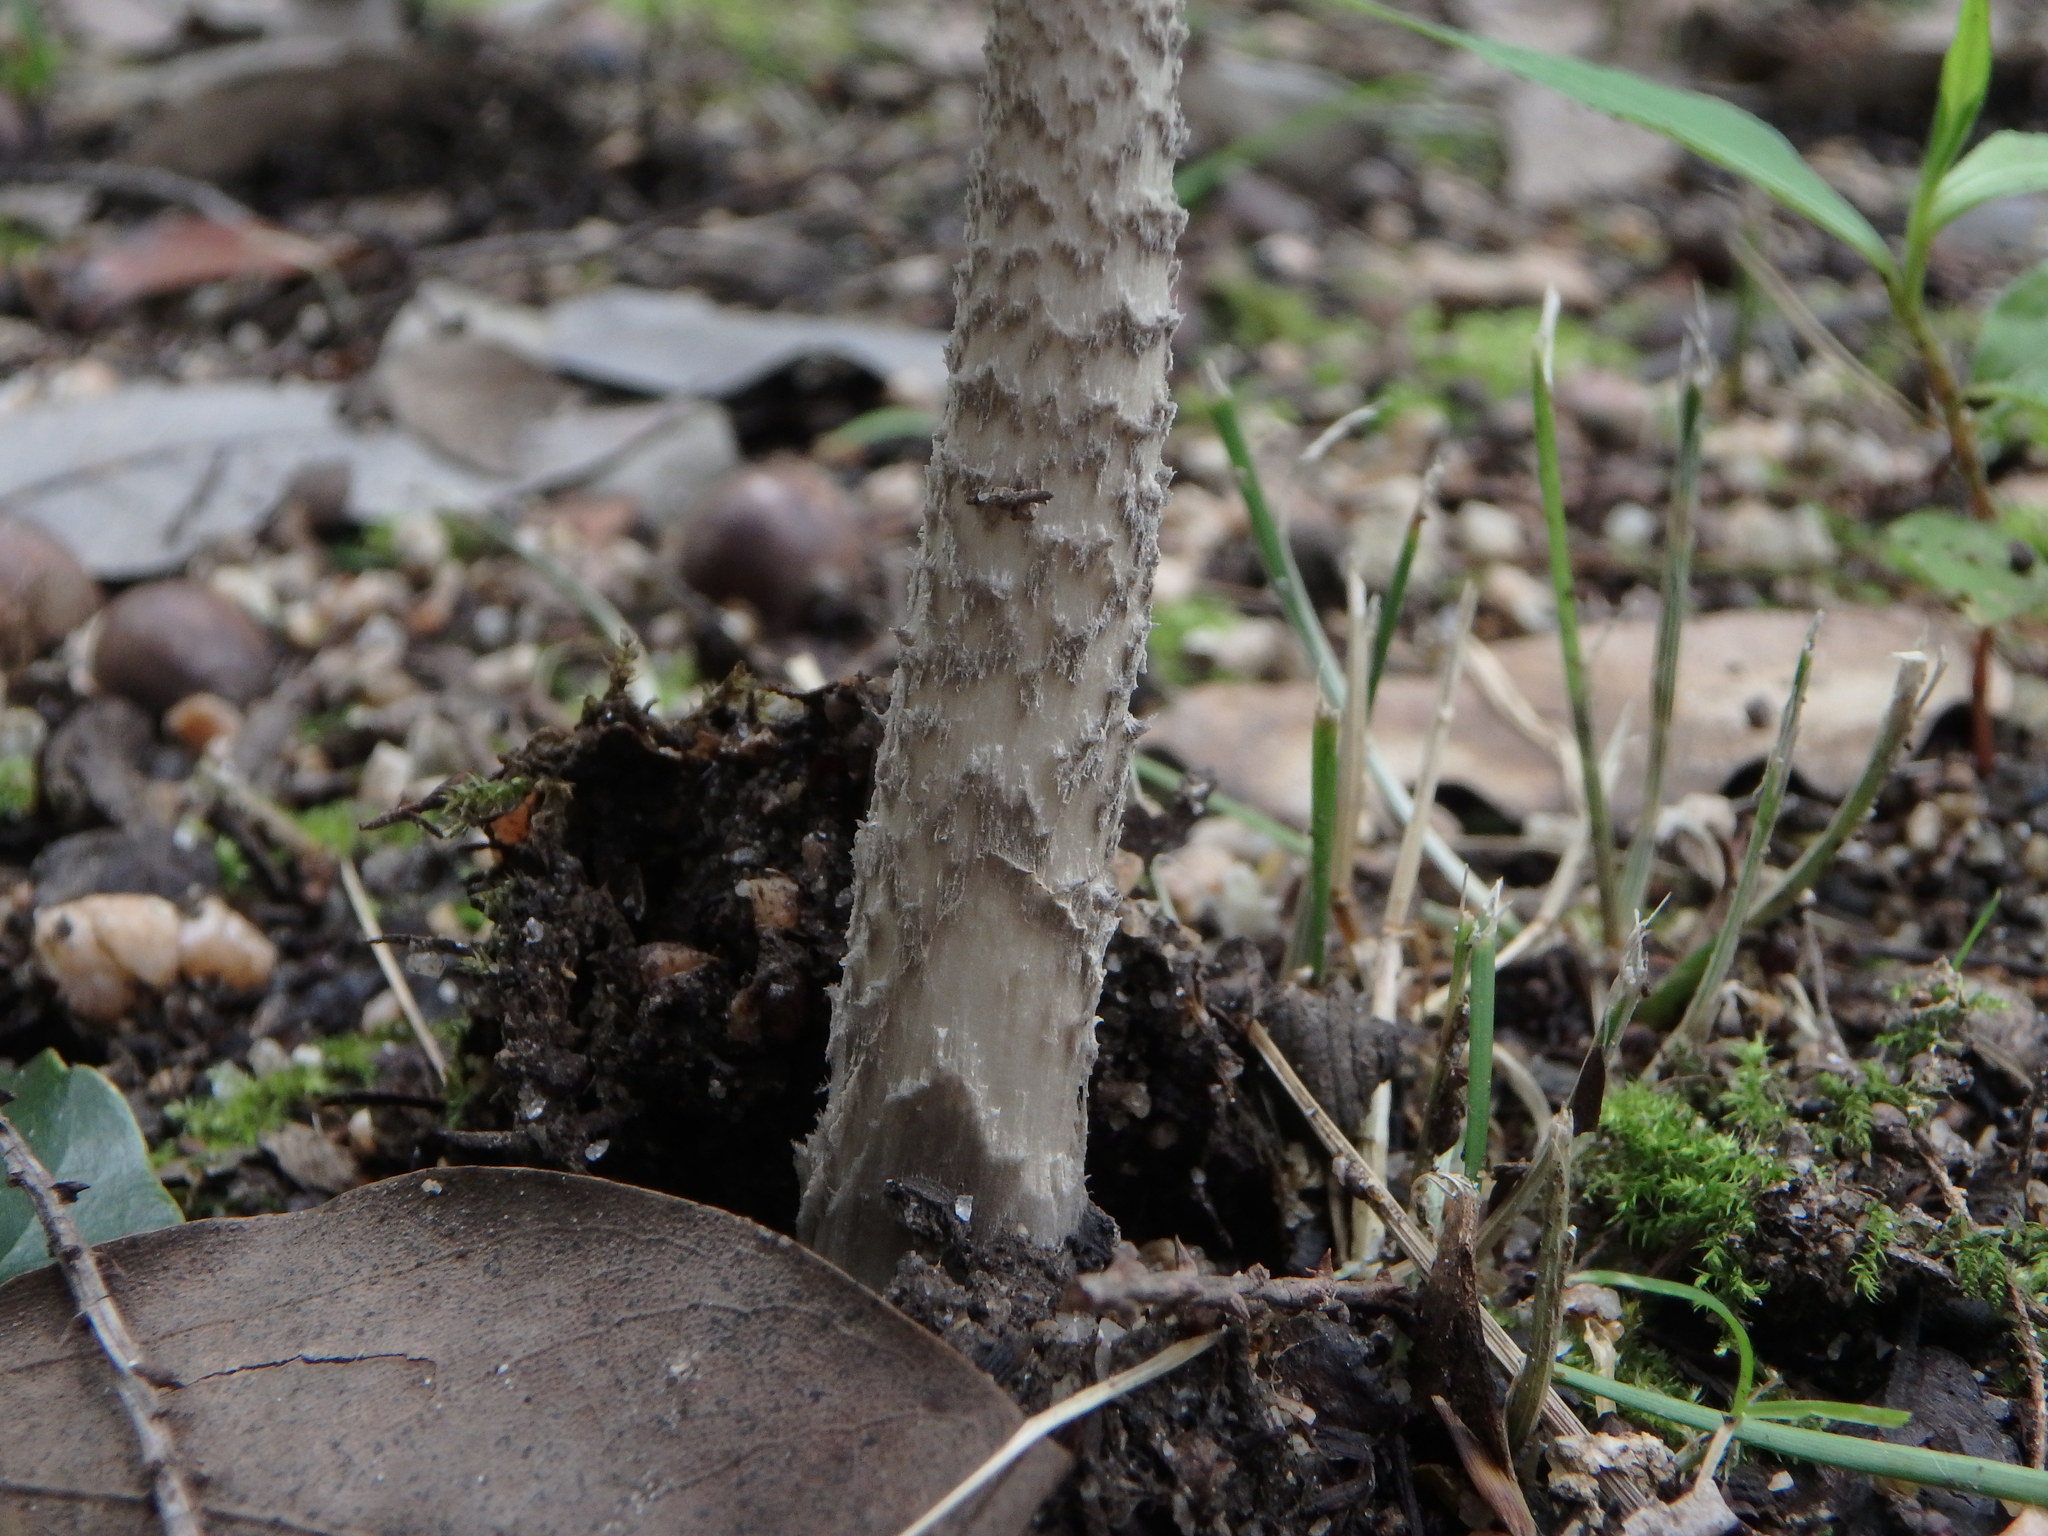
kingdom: Fungi
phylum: Basidiomycota
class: Agaricomycetes
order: Agaricales
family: Amanitaceae
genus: Amanita
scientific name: Amanita liquii
